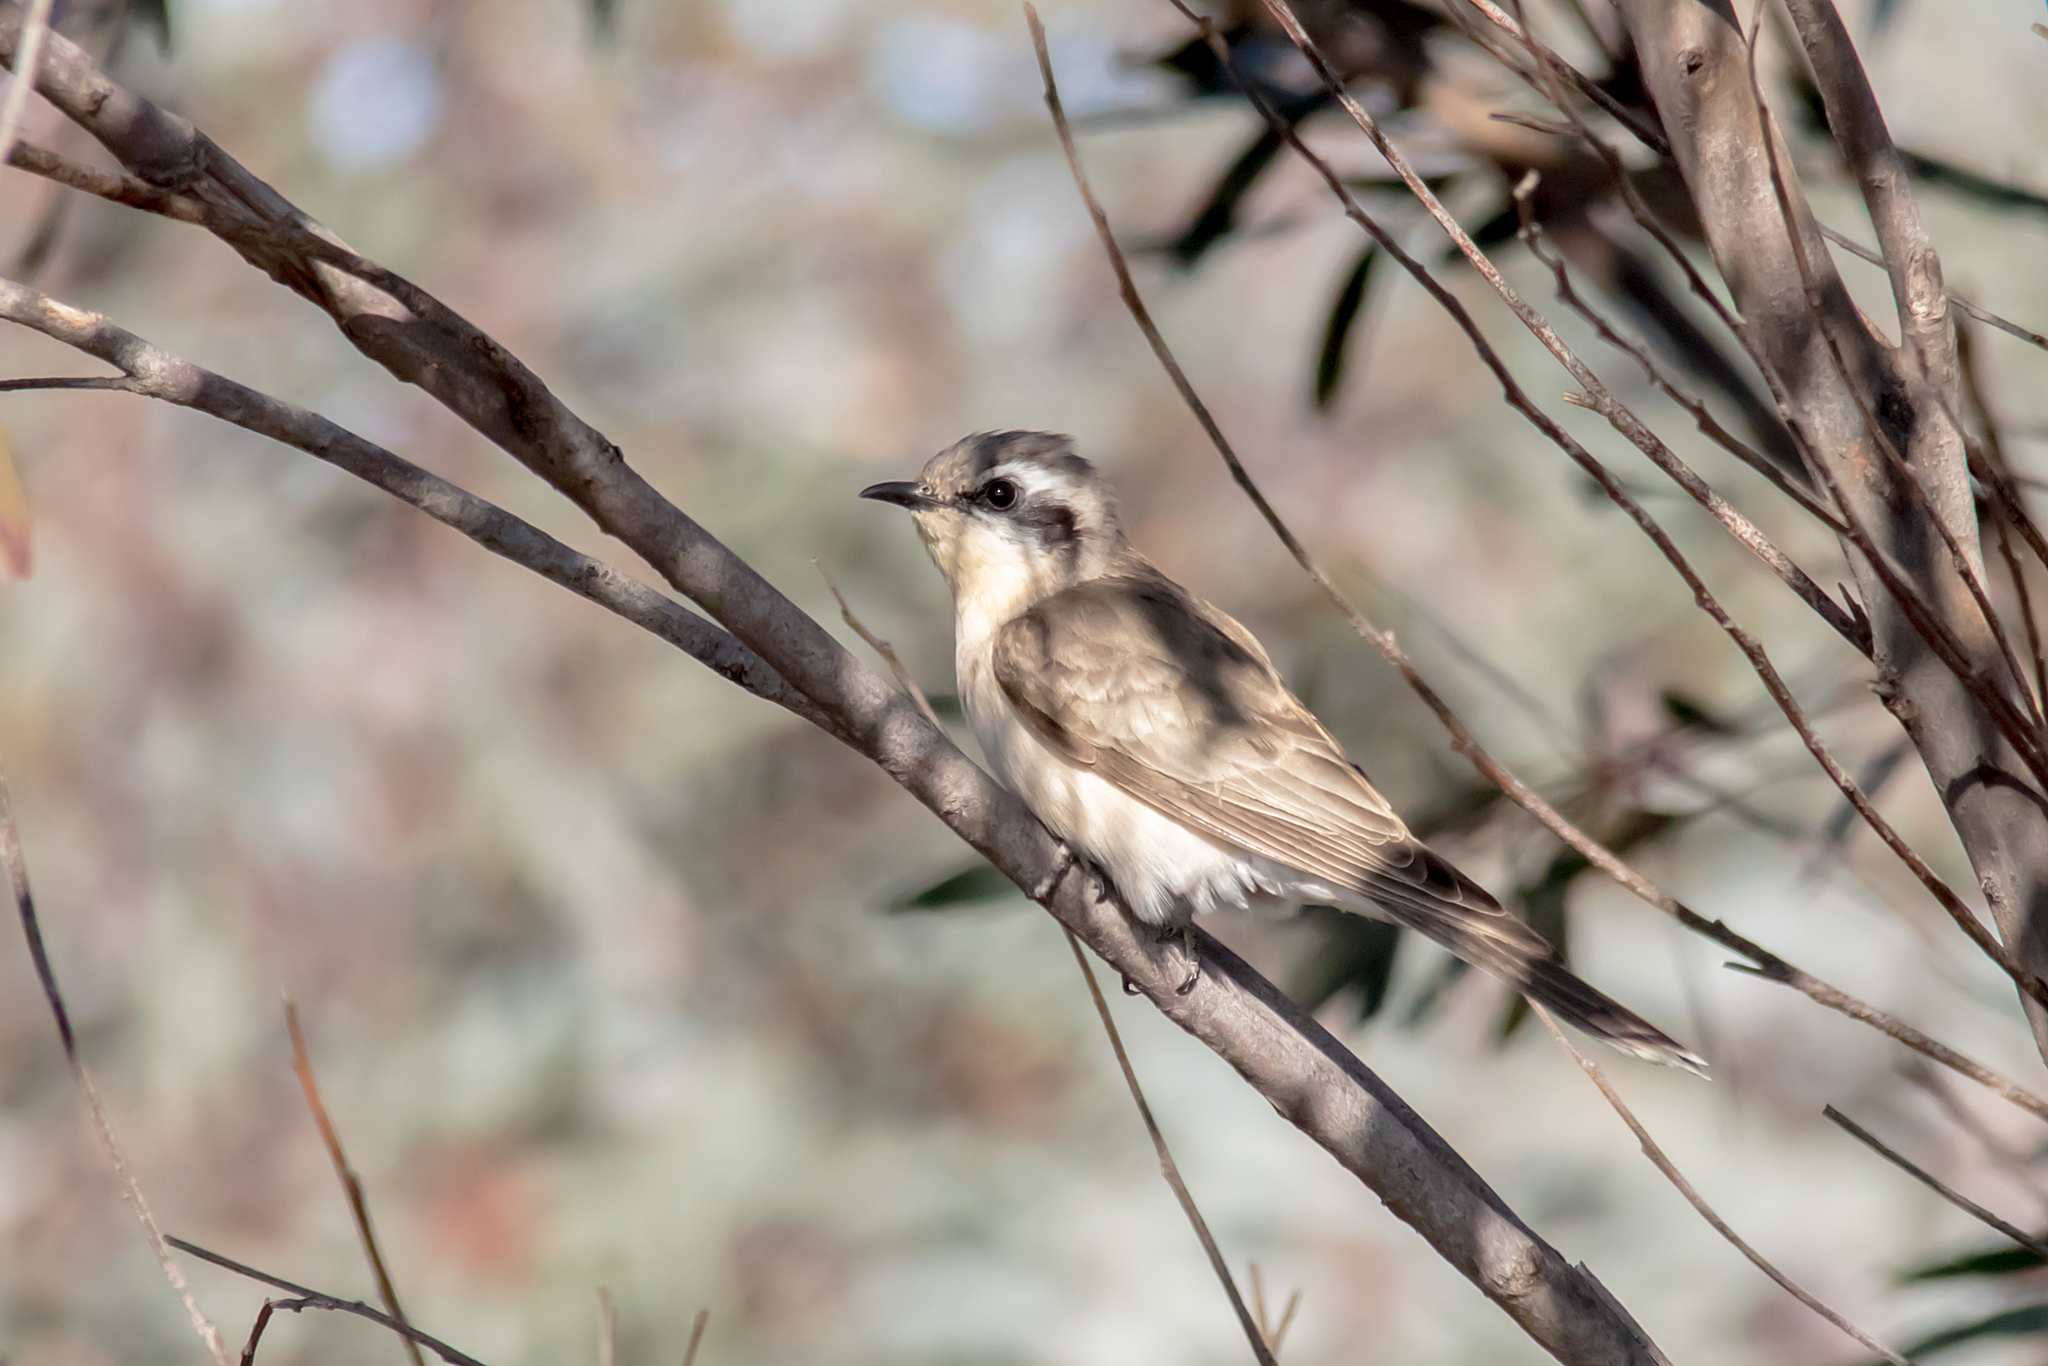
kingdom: Animalia
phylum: Chordata
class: Aves
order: Cuculiformes
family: Cuculidae
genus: Chrysococcyx
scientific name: Chrysococcyx osculans
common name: Black-eared cuckoo
